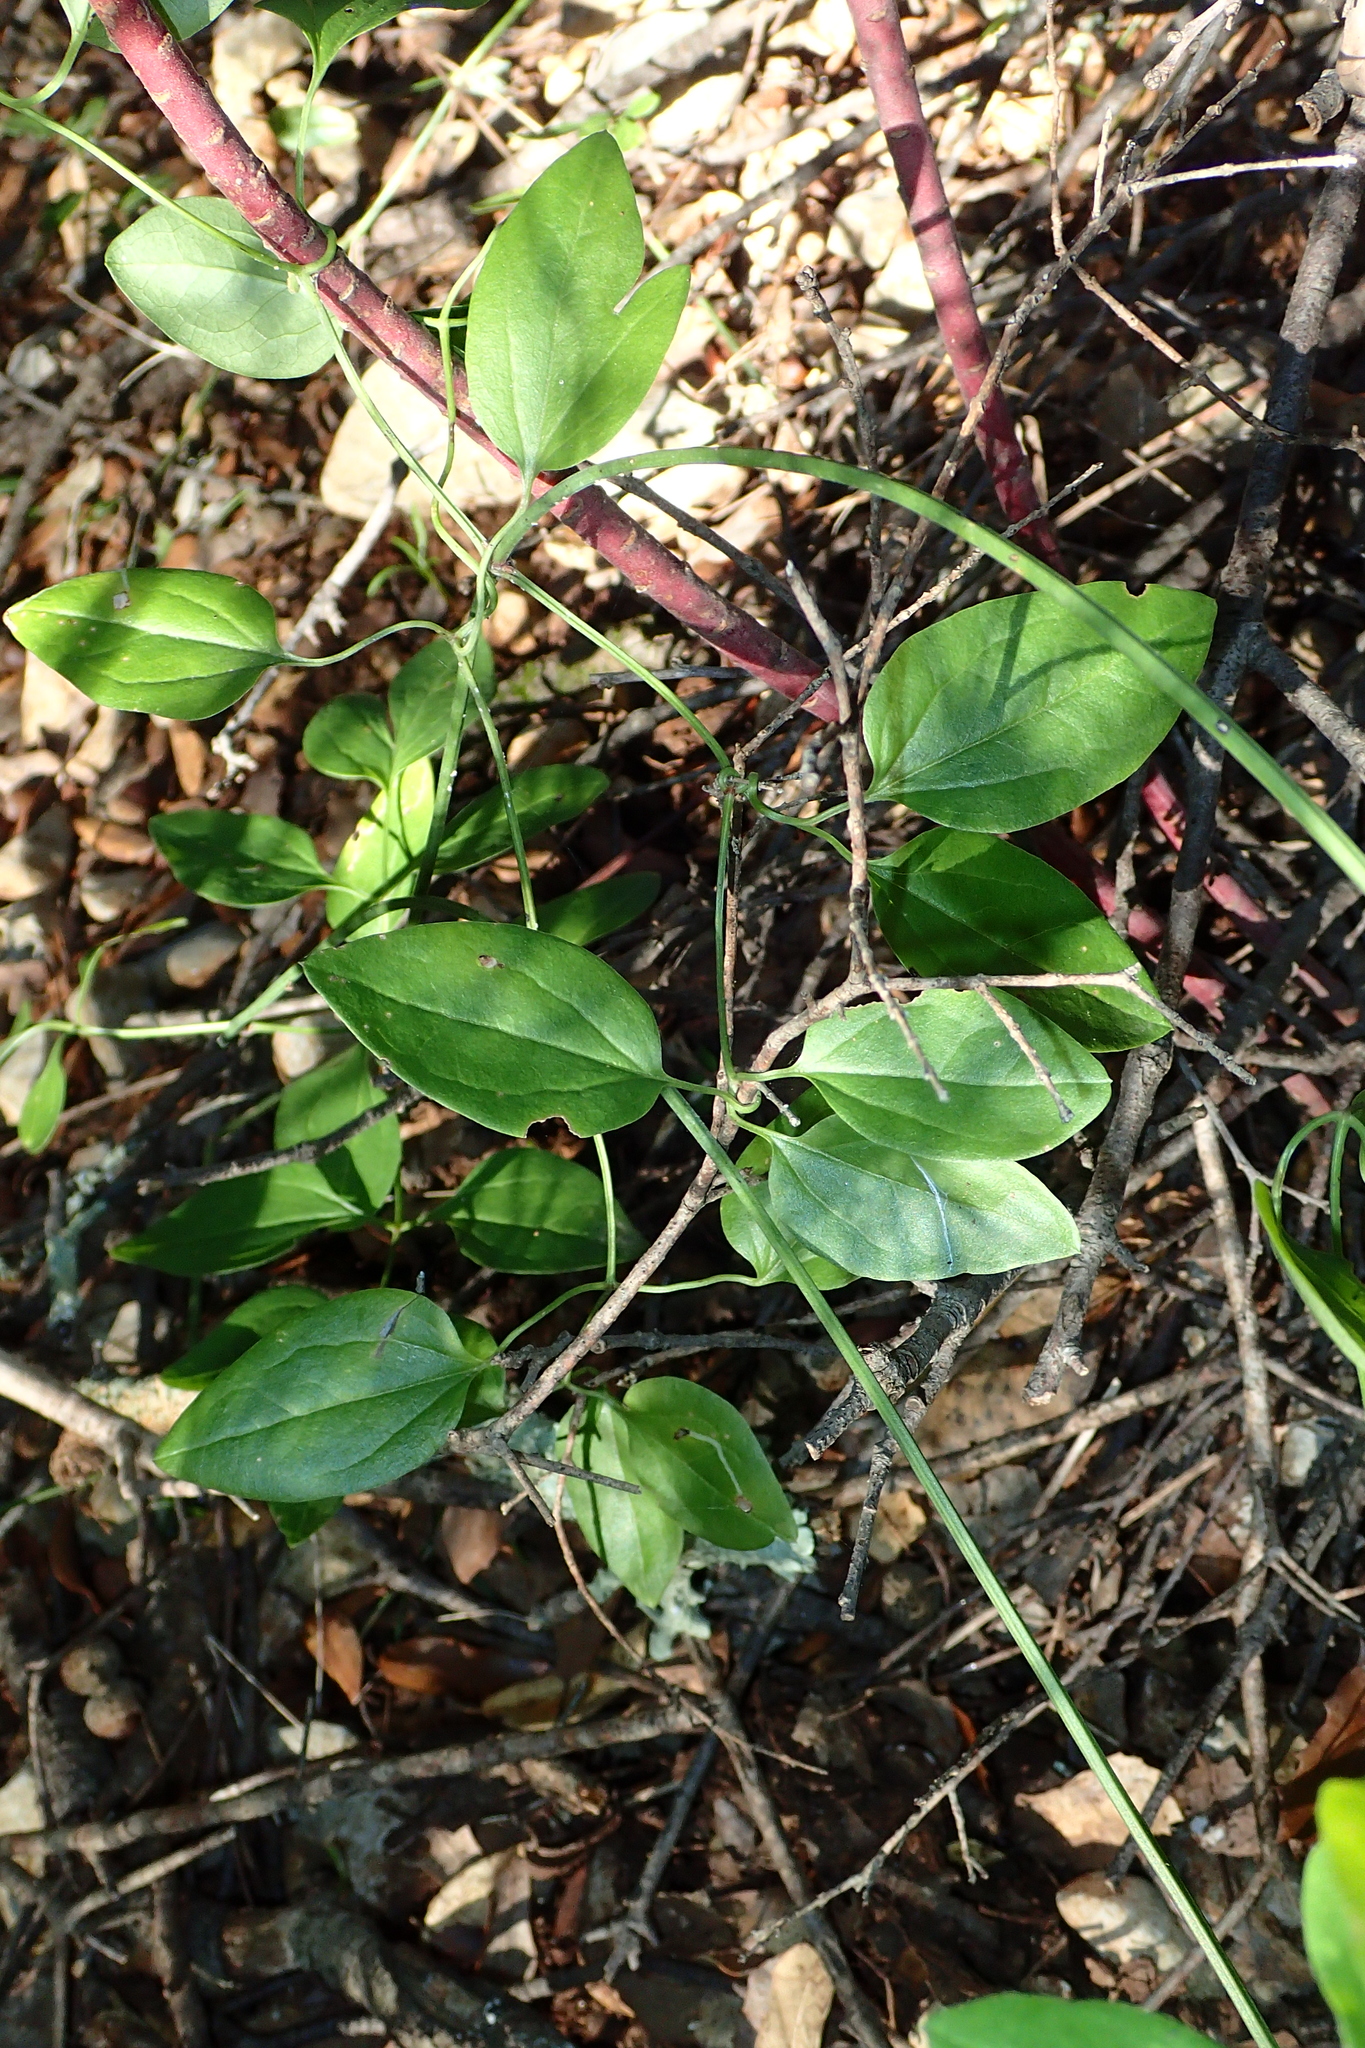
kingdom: Plantae
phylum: Tracheophyta
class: Magnoliopsida
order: Ranunculales
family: Ranunculaceae
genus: Clematis
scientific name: Clematis flammula
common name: Virgin's-bower
